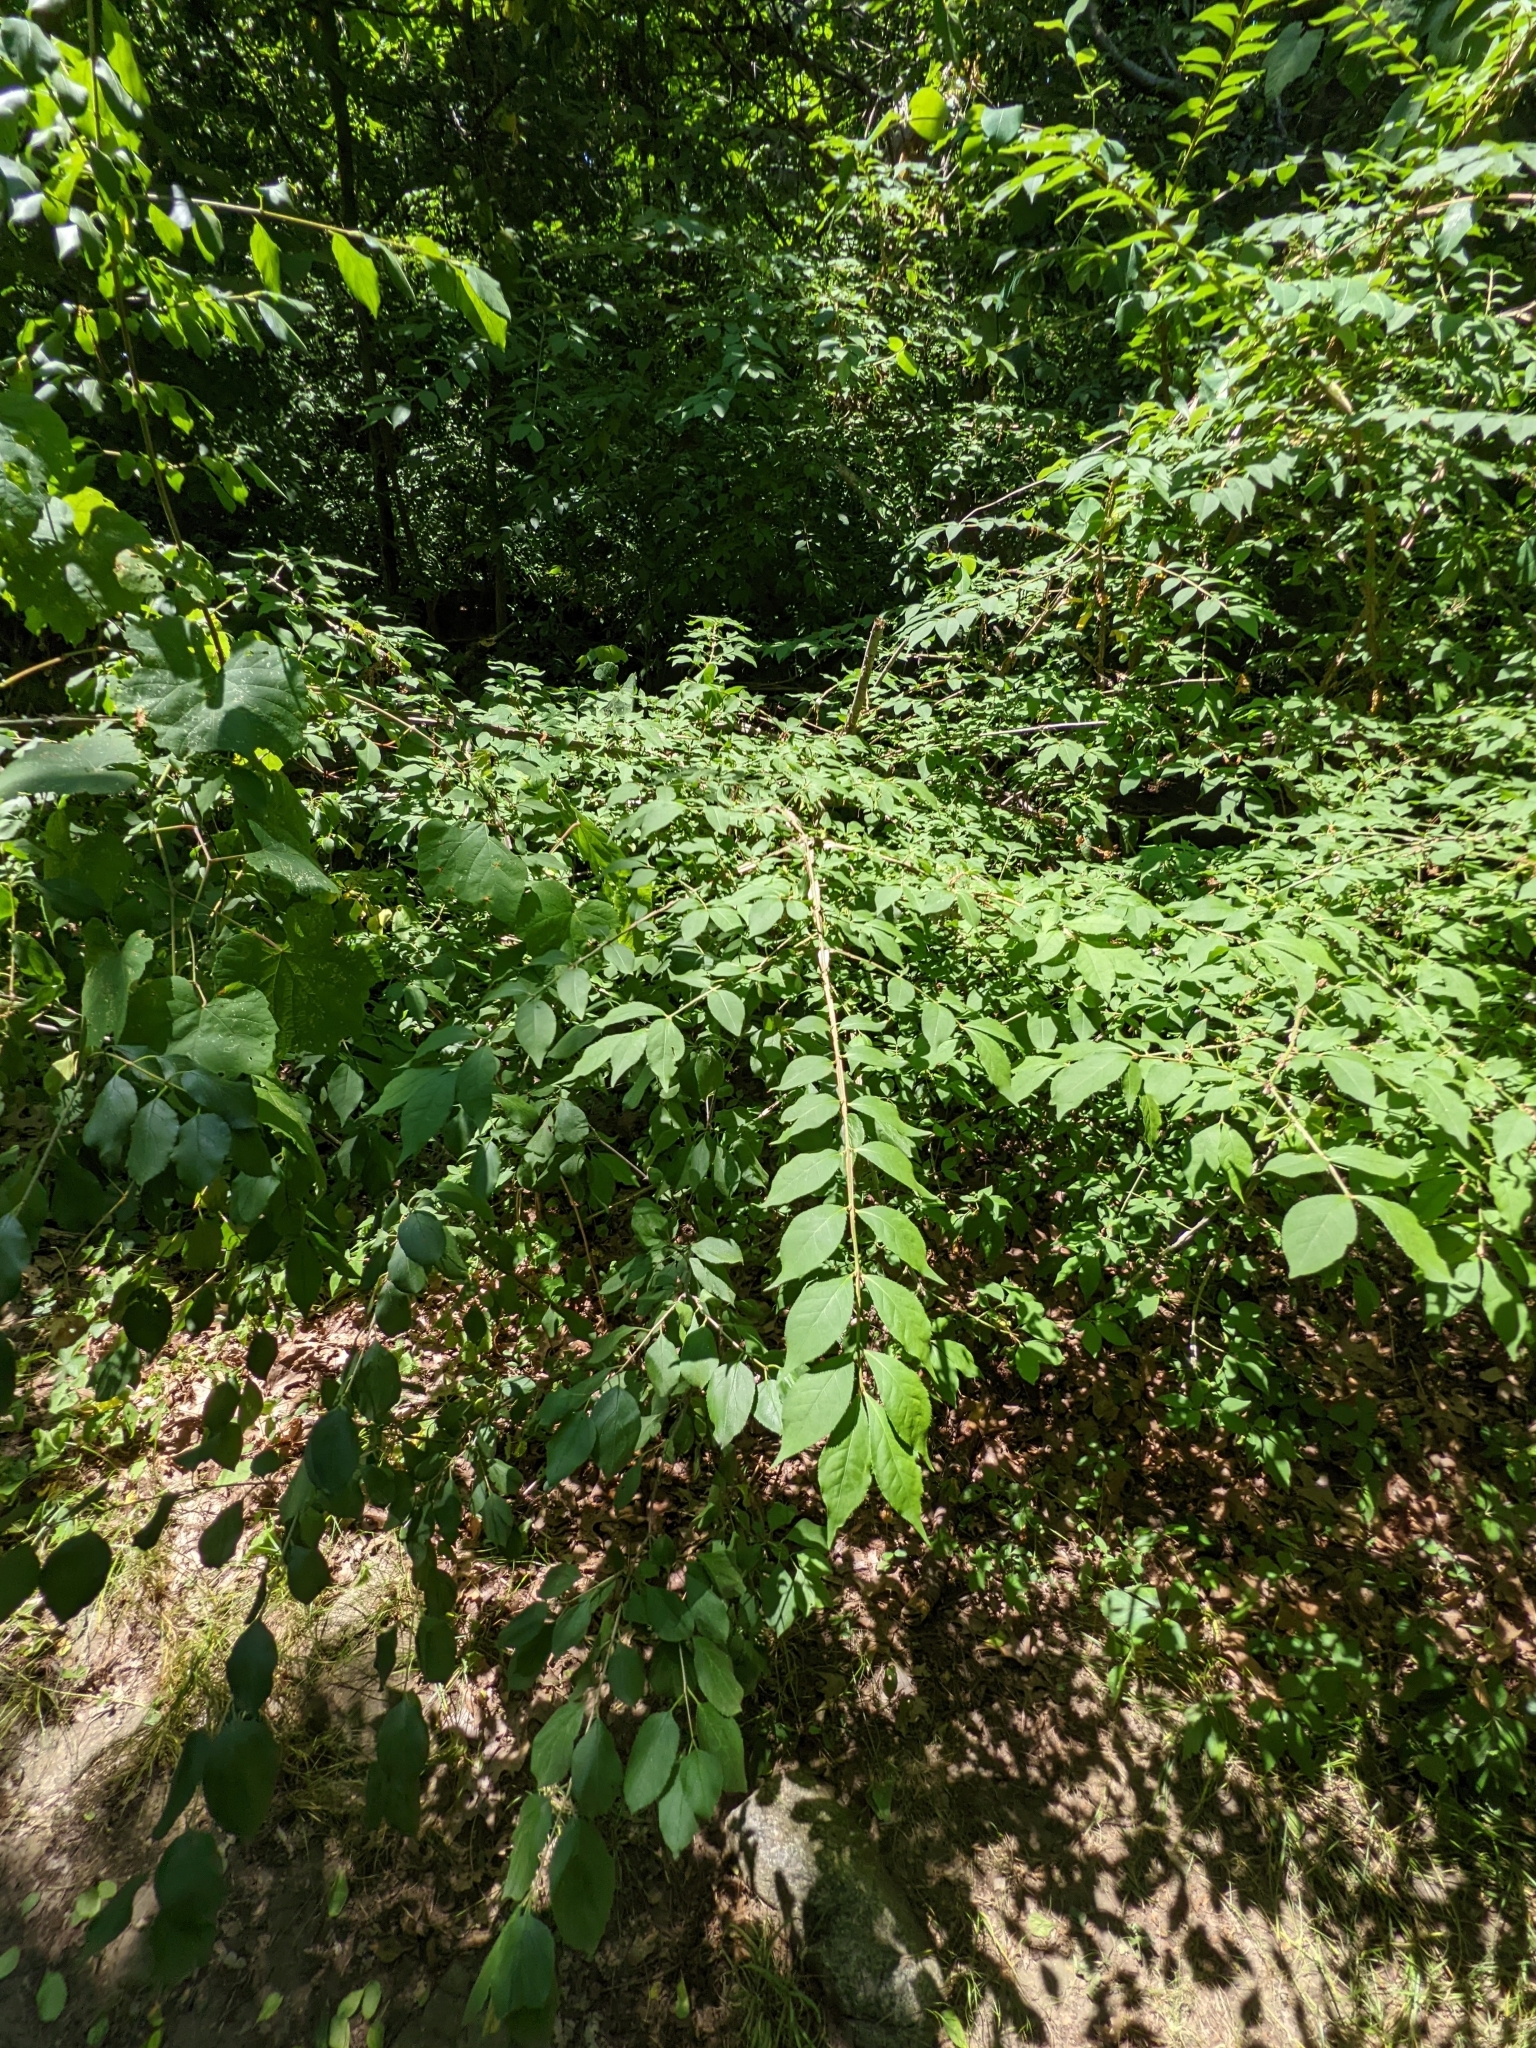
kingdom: Plantae
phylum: Tracheophyta
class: Magnoliopsida
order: Celastrales
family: Celastraceae
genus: Euonymus
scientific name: Euonymus alatus
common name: Winged euonymus
